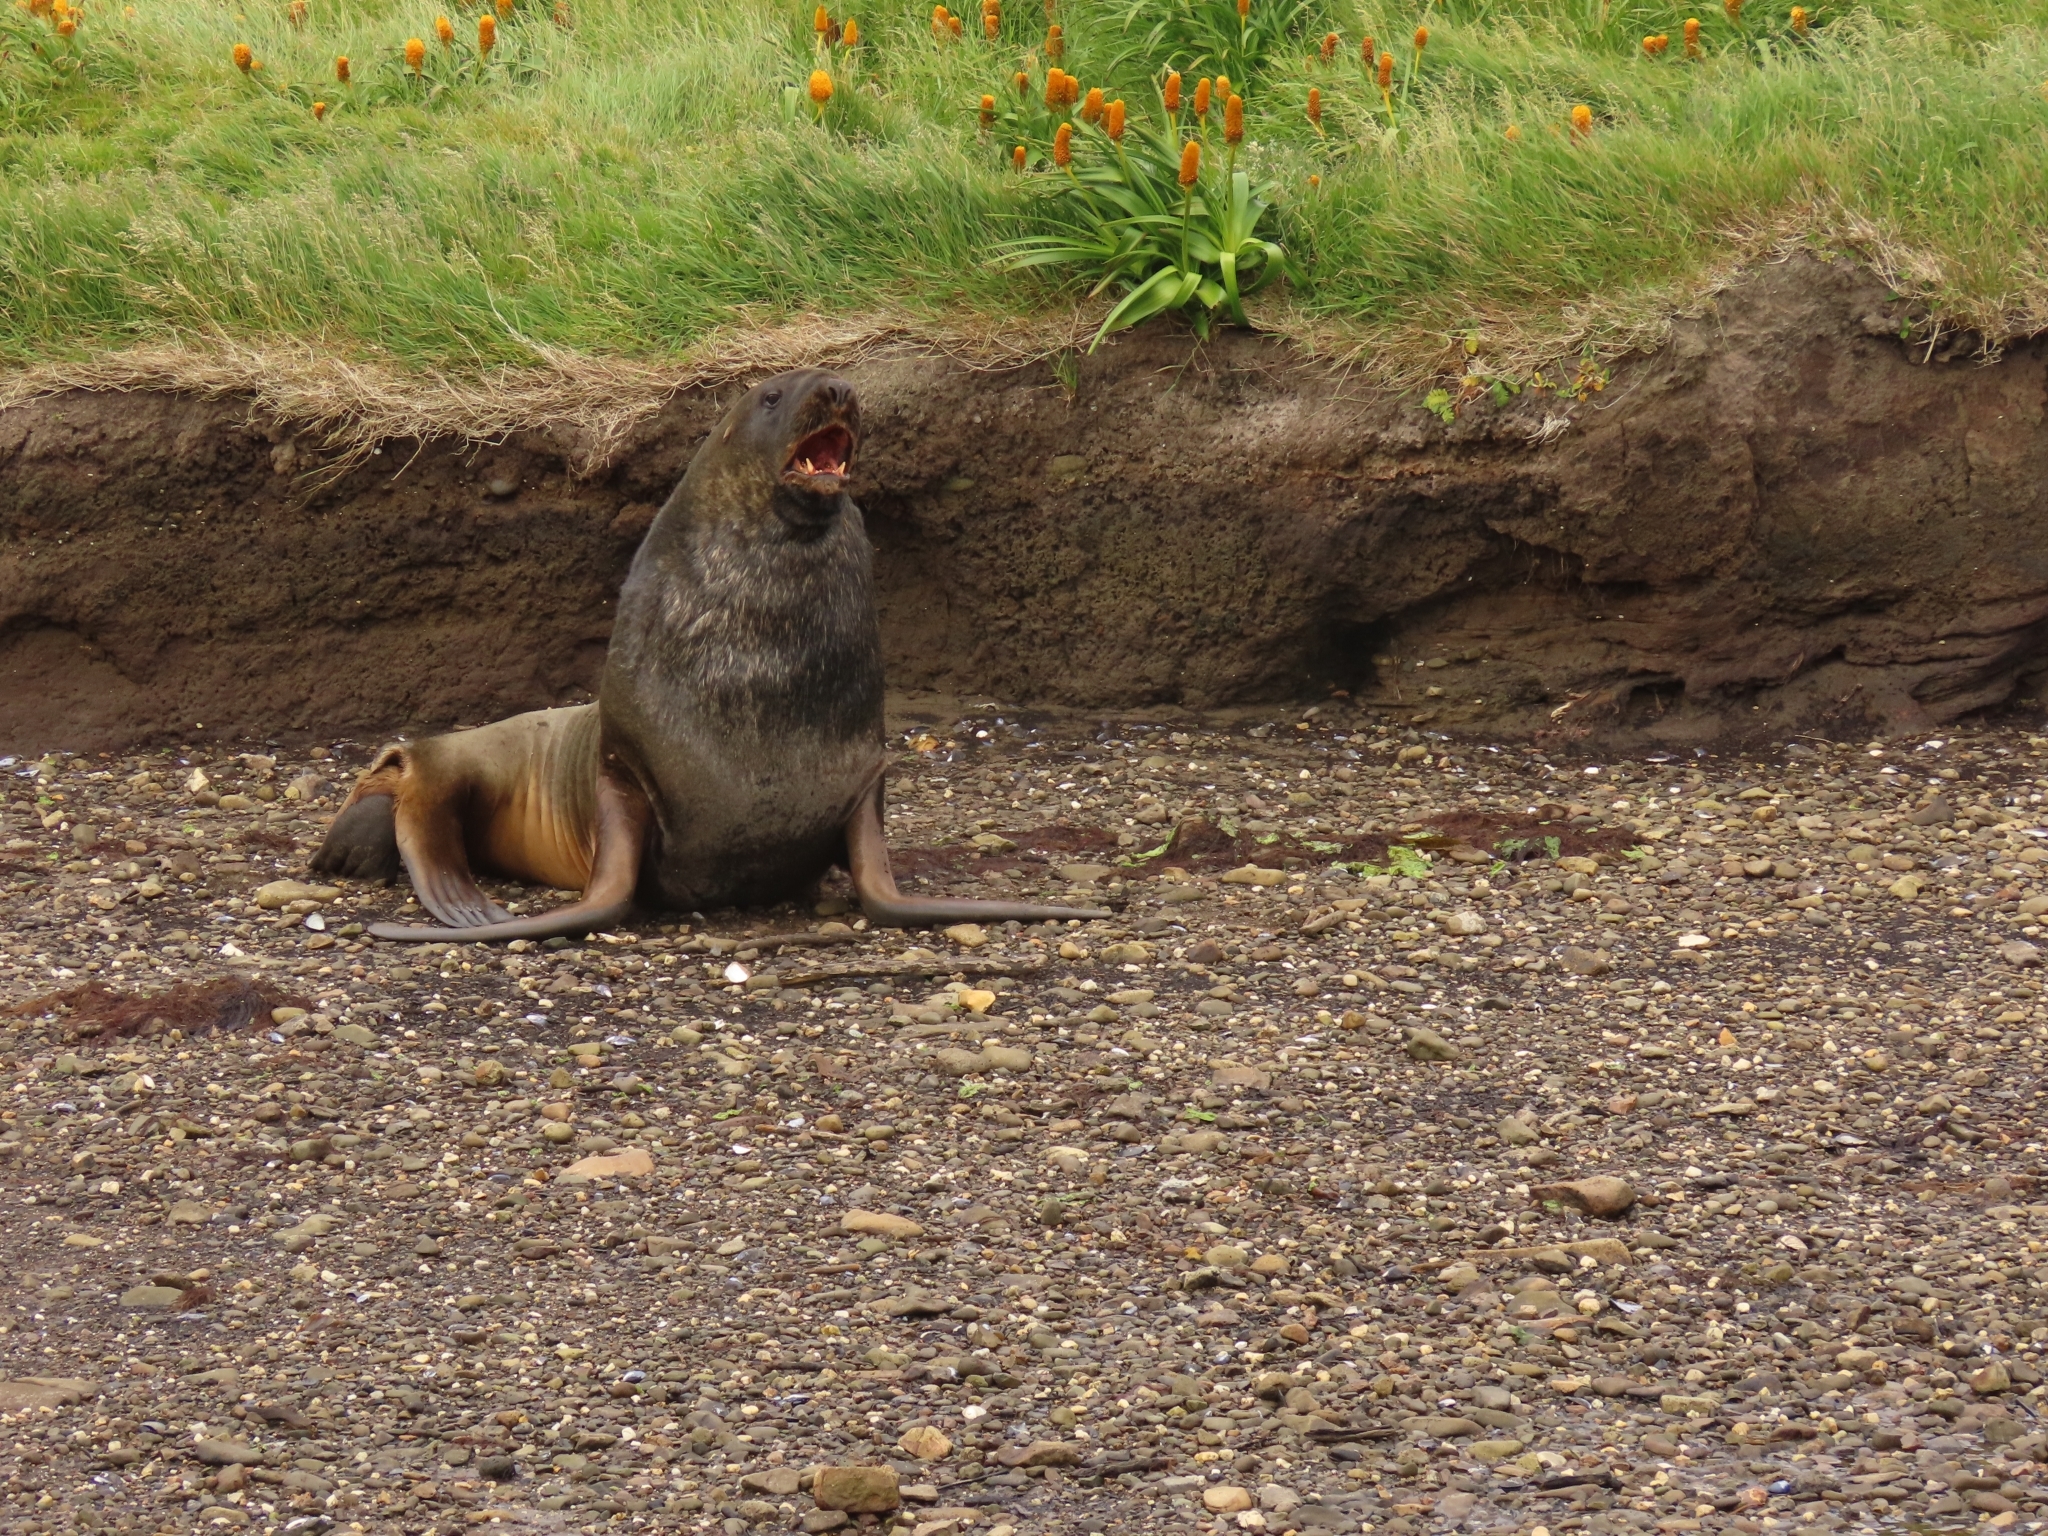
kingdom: Animalia
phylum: Chordata
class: Mammalia
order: Carnivora
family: Otariidae
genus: Phocarctos
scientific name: Phocarctos hookeri
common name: New zealand sea lion
